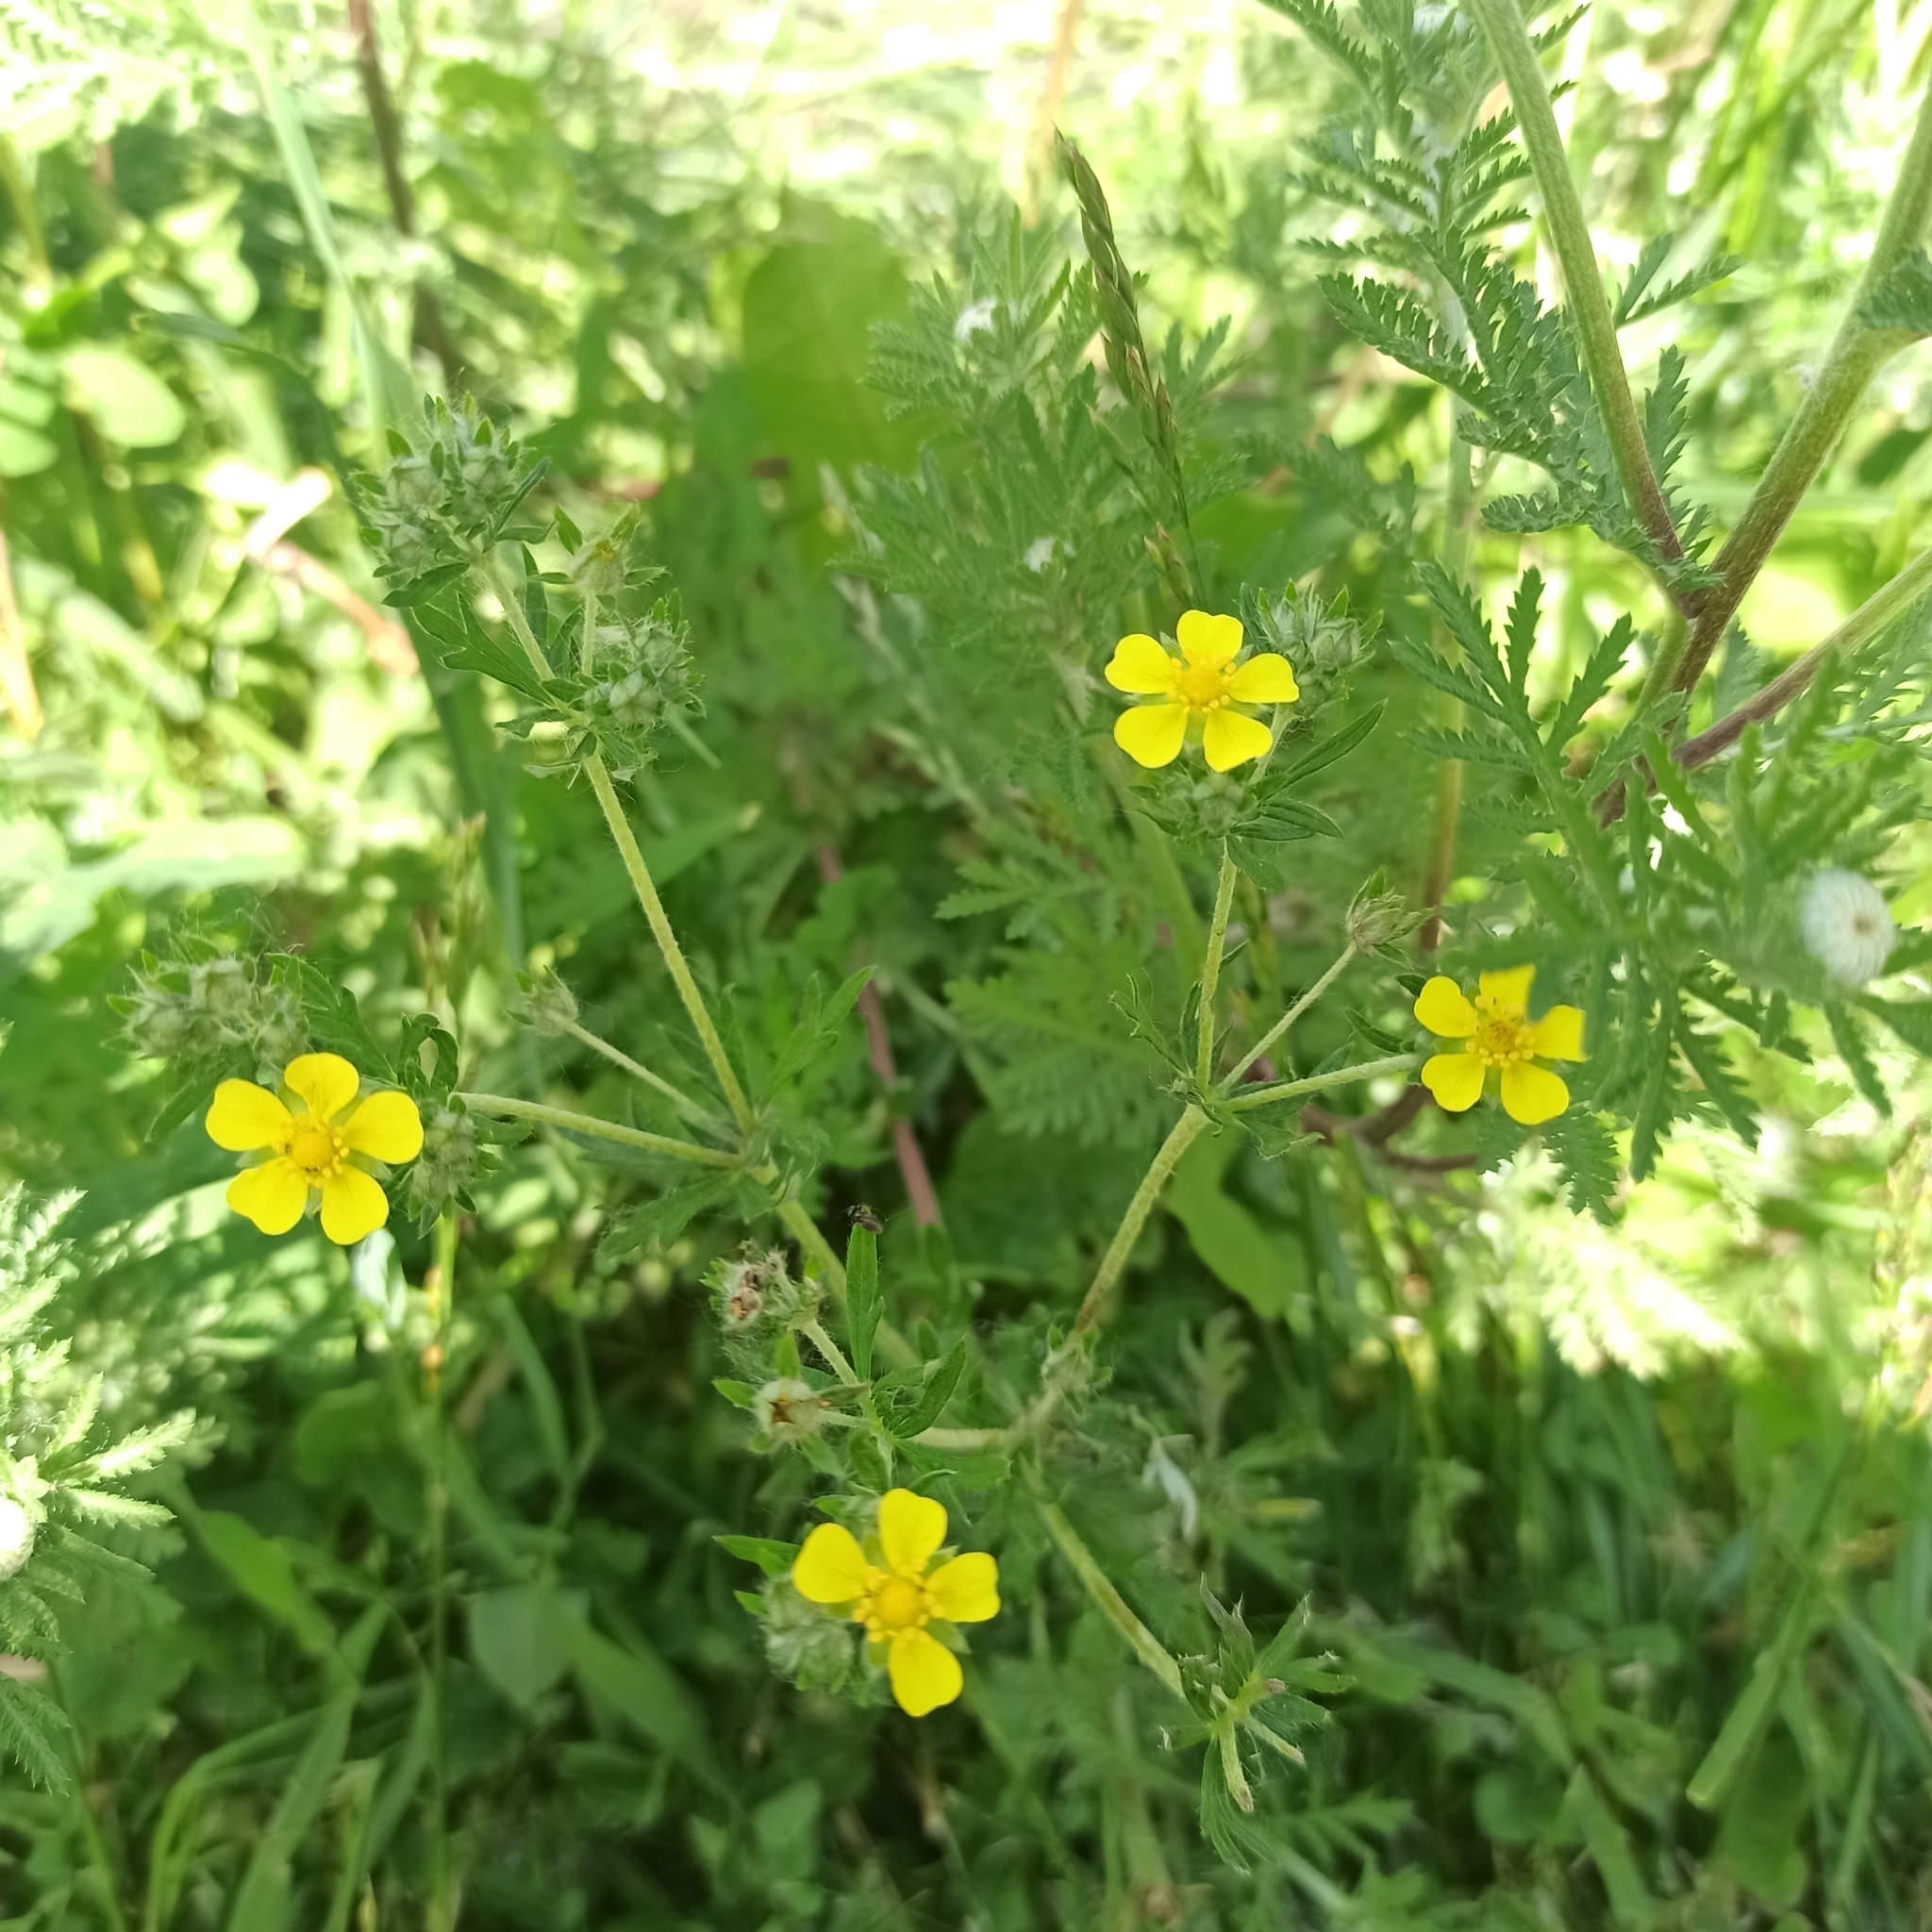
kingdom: Plantae
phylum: Tracheophyta
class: Magnoliopsida
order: Rosales
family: Rosaceae
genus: Potentilla
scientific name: Potentilla argentea
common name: Hoary cinquefoil
